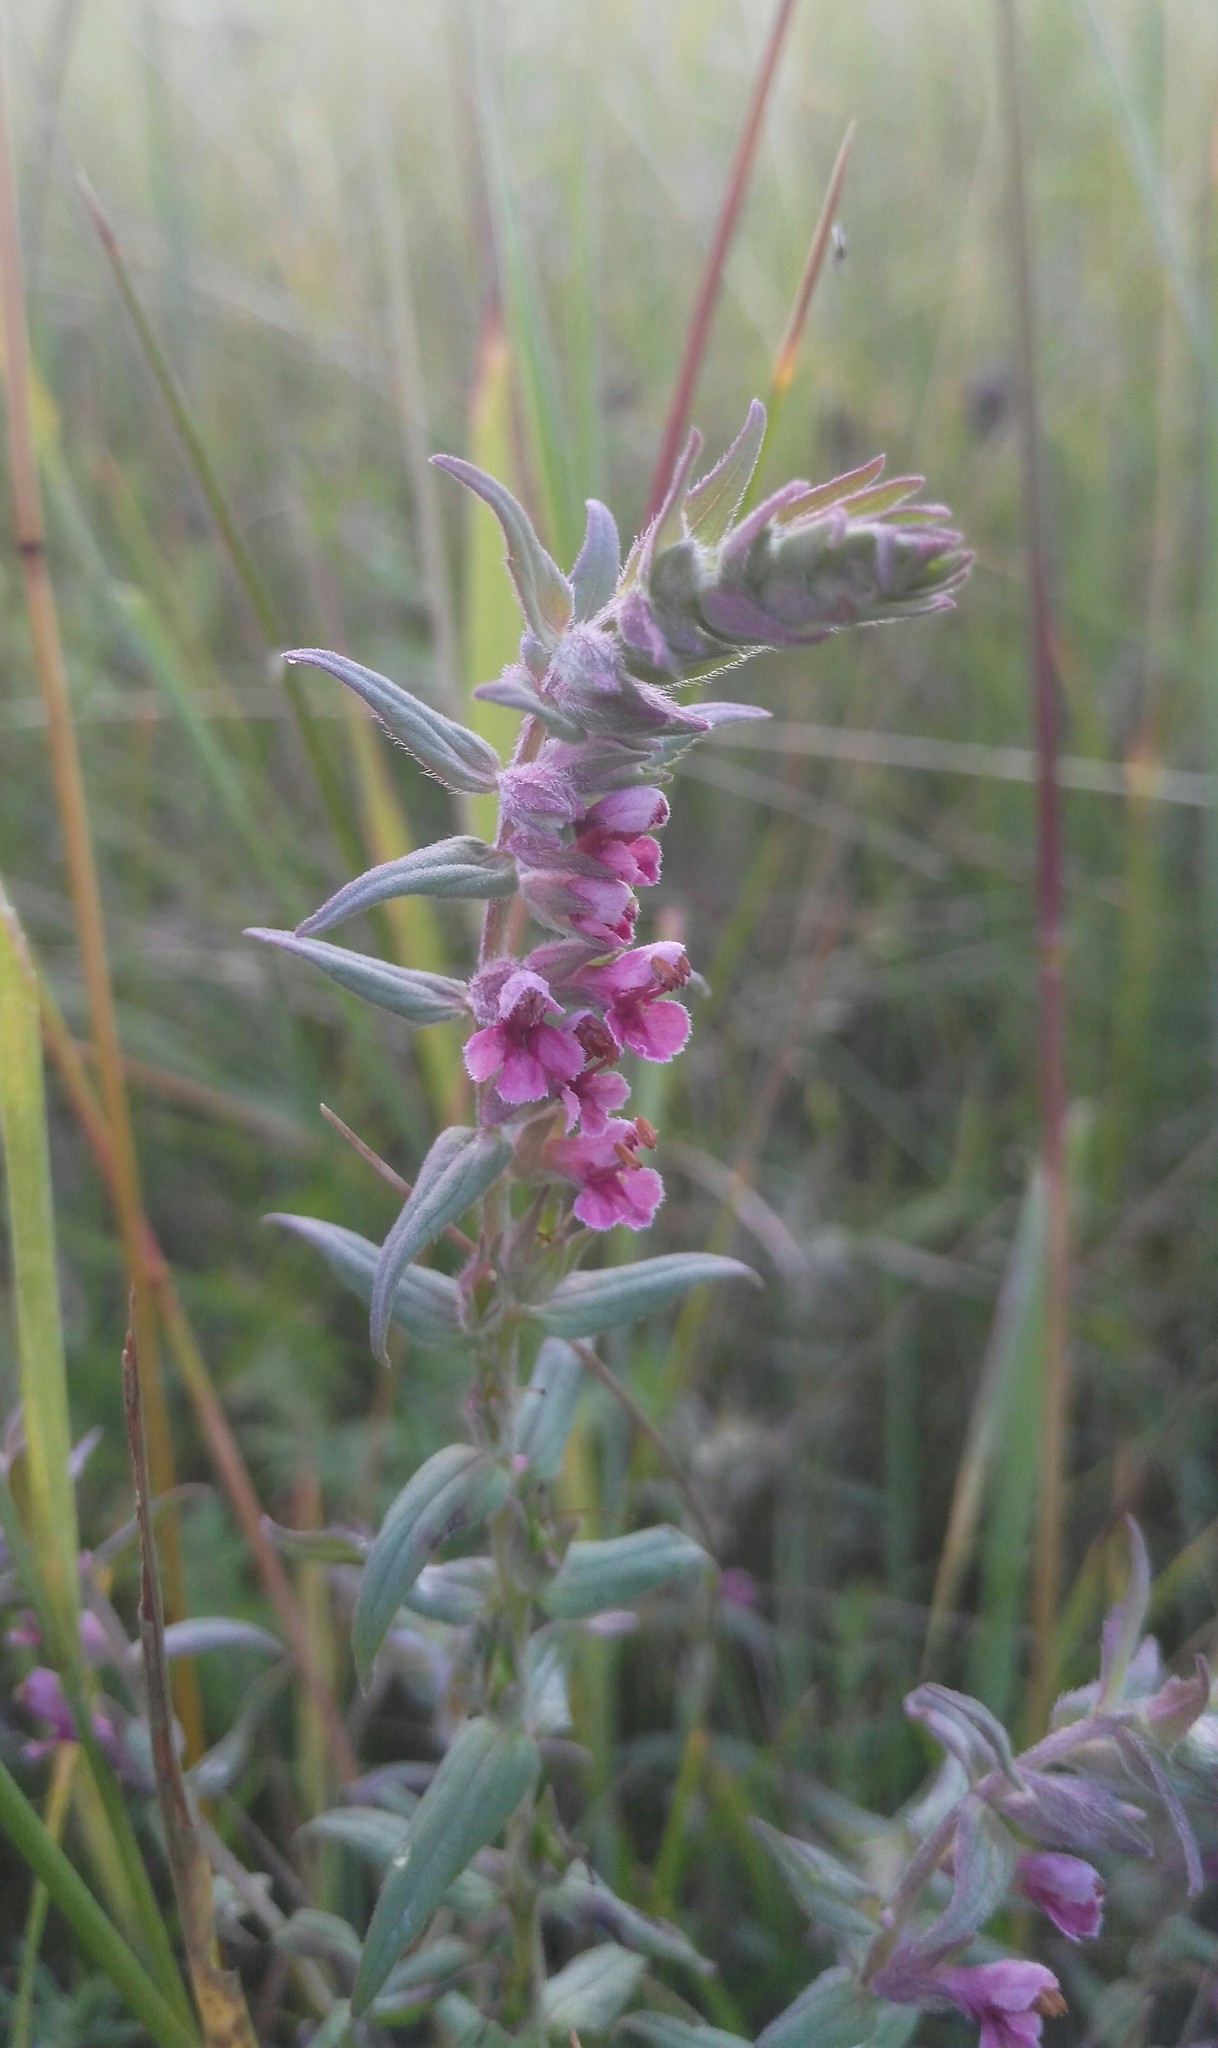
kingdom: Plantae
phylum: Tracheophyta
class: Magnoliopsida
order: Lamiales
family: Orobanchaceae
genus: Odontites
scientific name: Odontites vulgaris
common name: Broomrape
